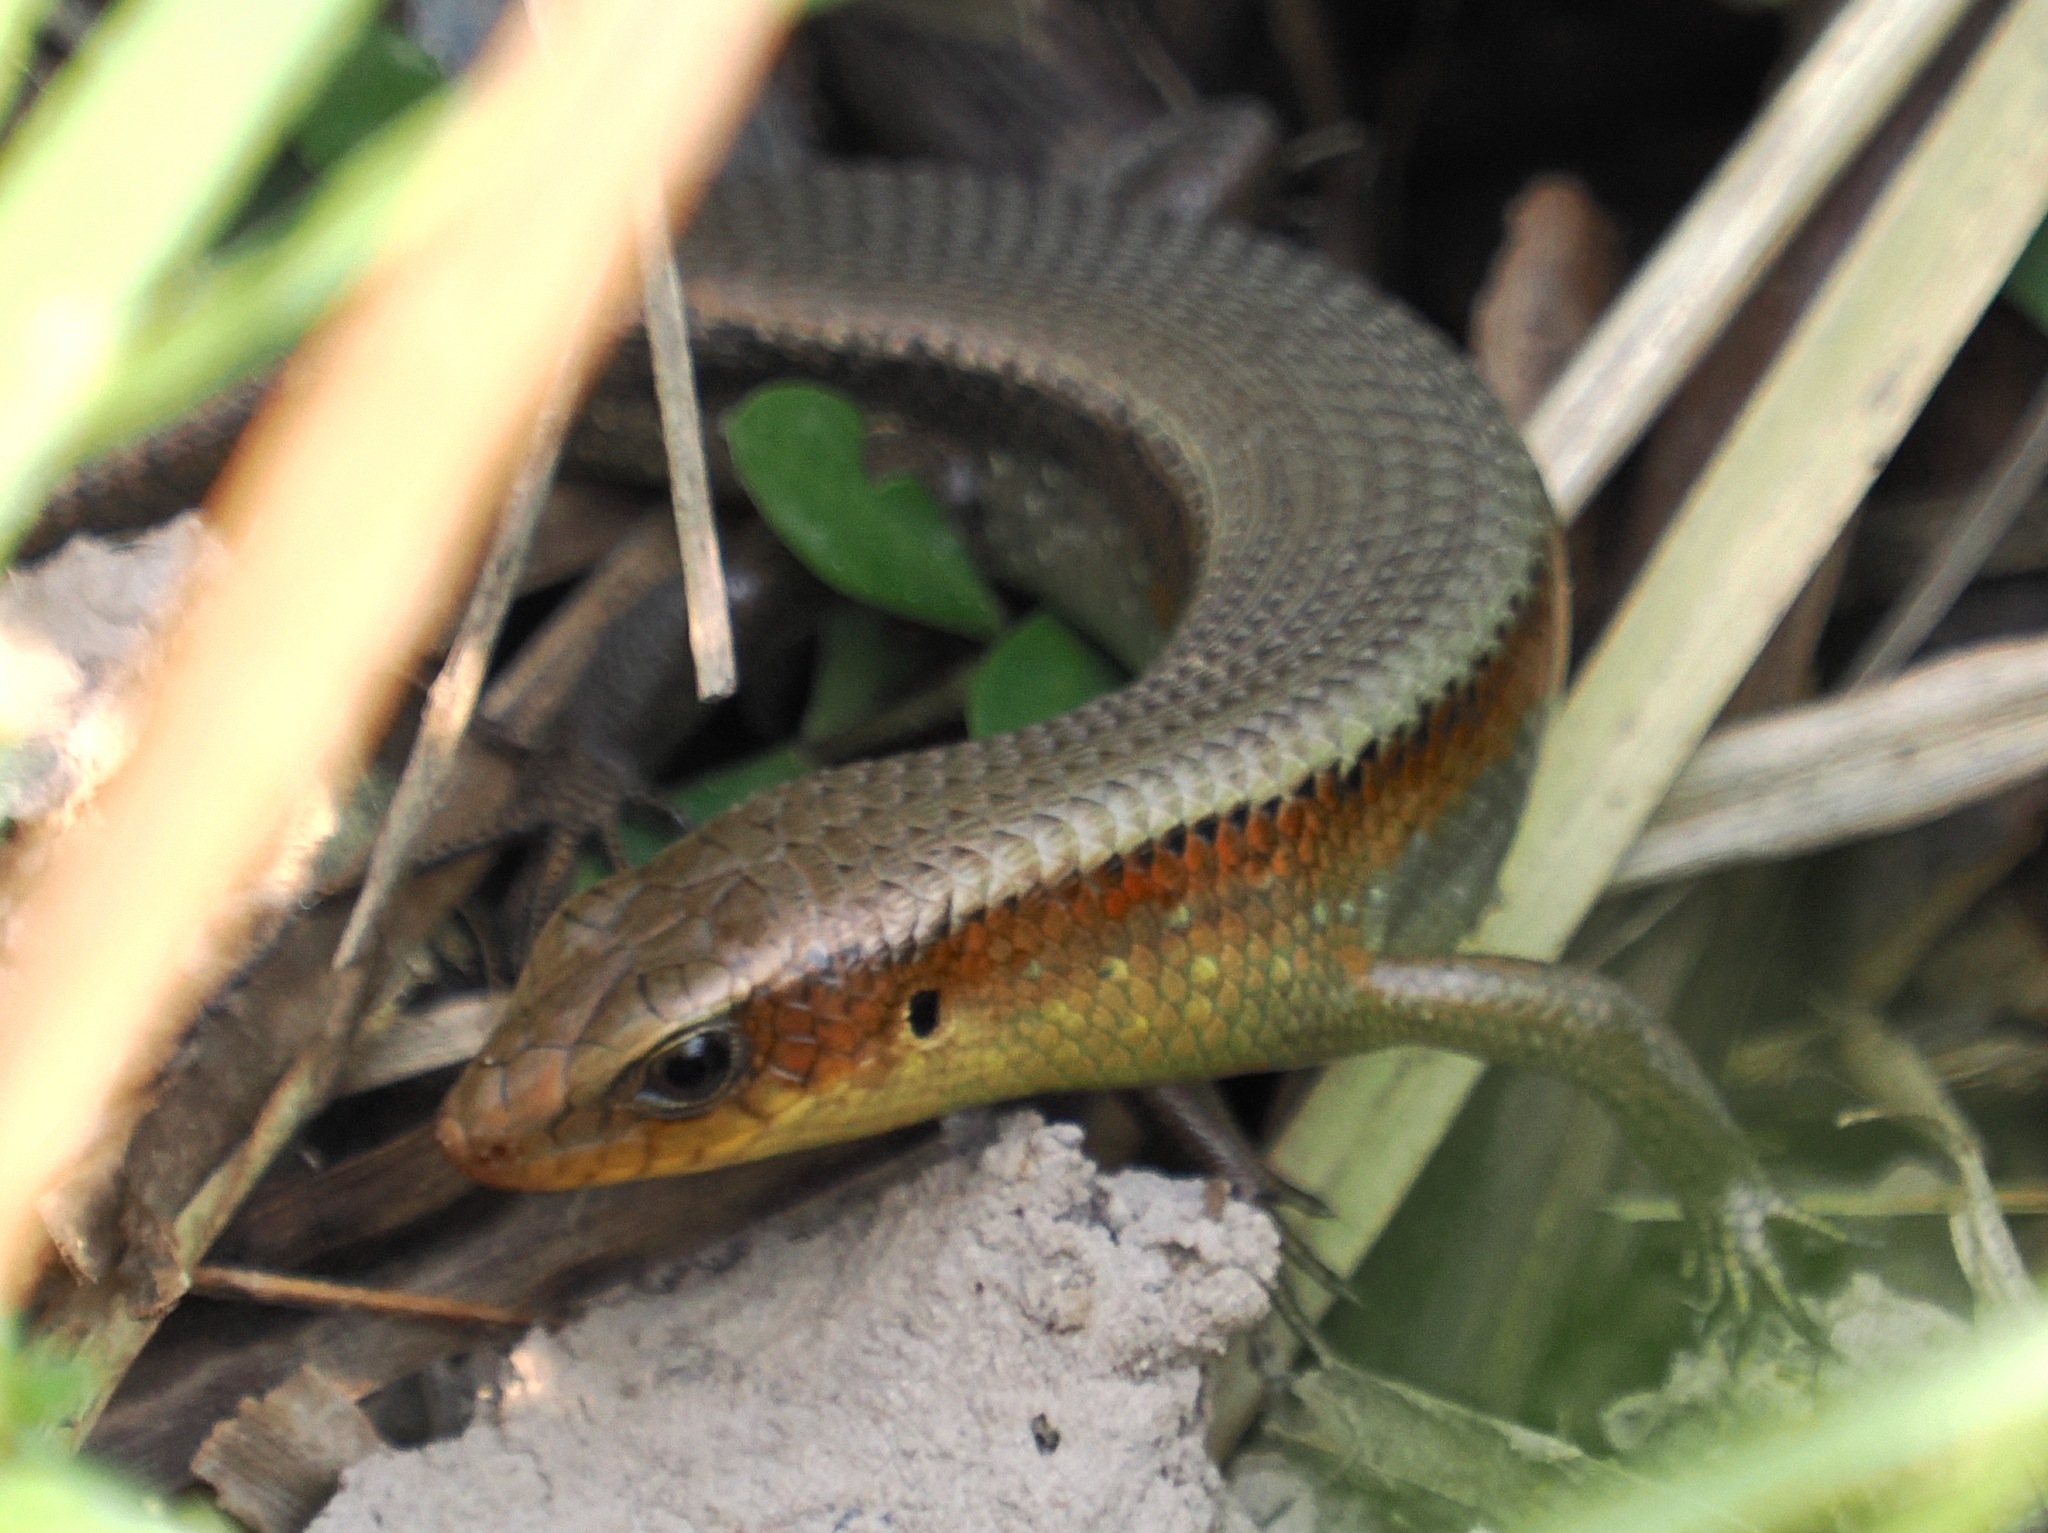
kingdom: Animalia
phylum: Chordata
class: Squamata
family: Scincidae
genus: Eutropis
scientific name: Eutropis multifasciata
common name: Common mabuya
